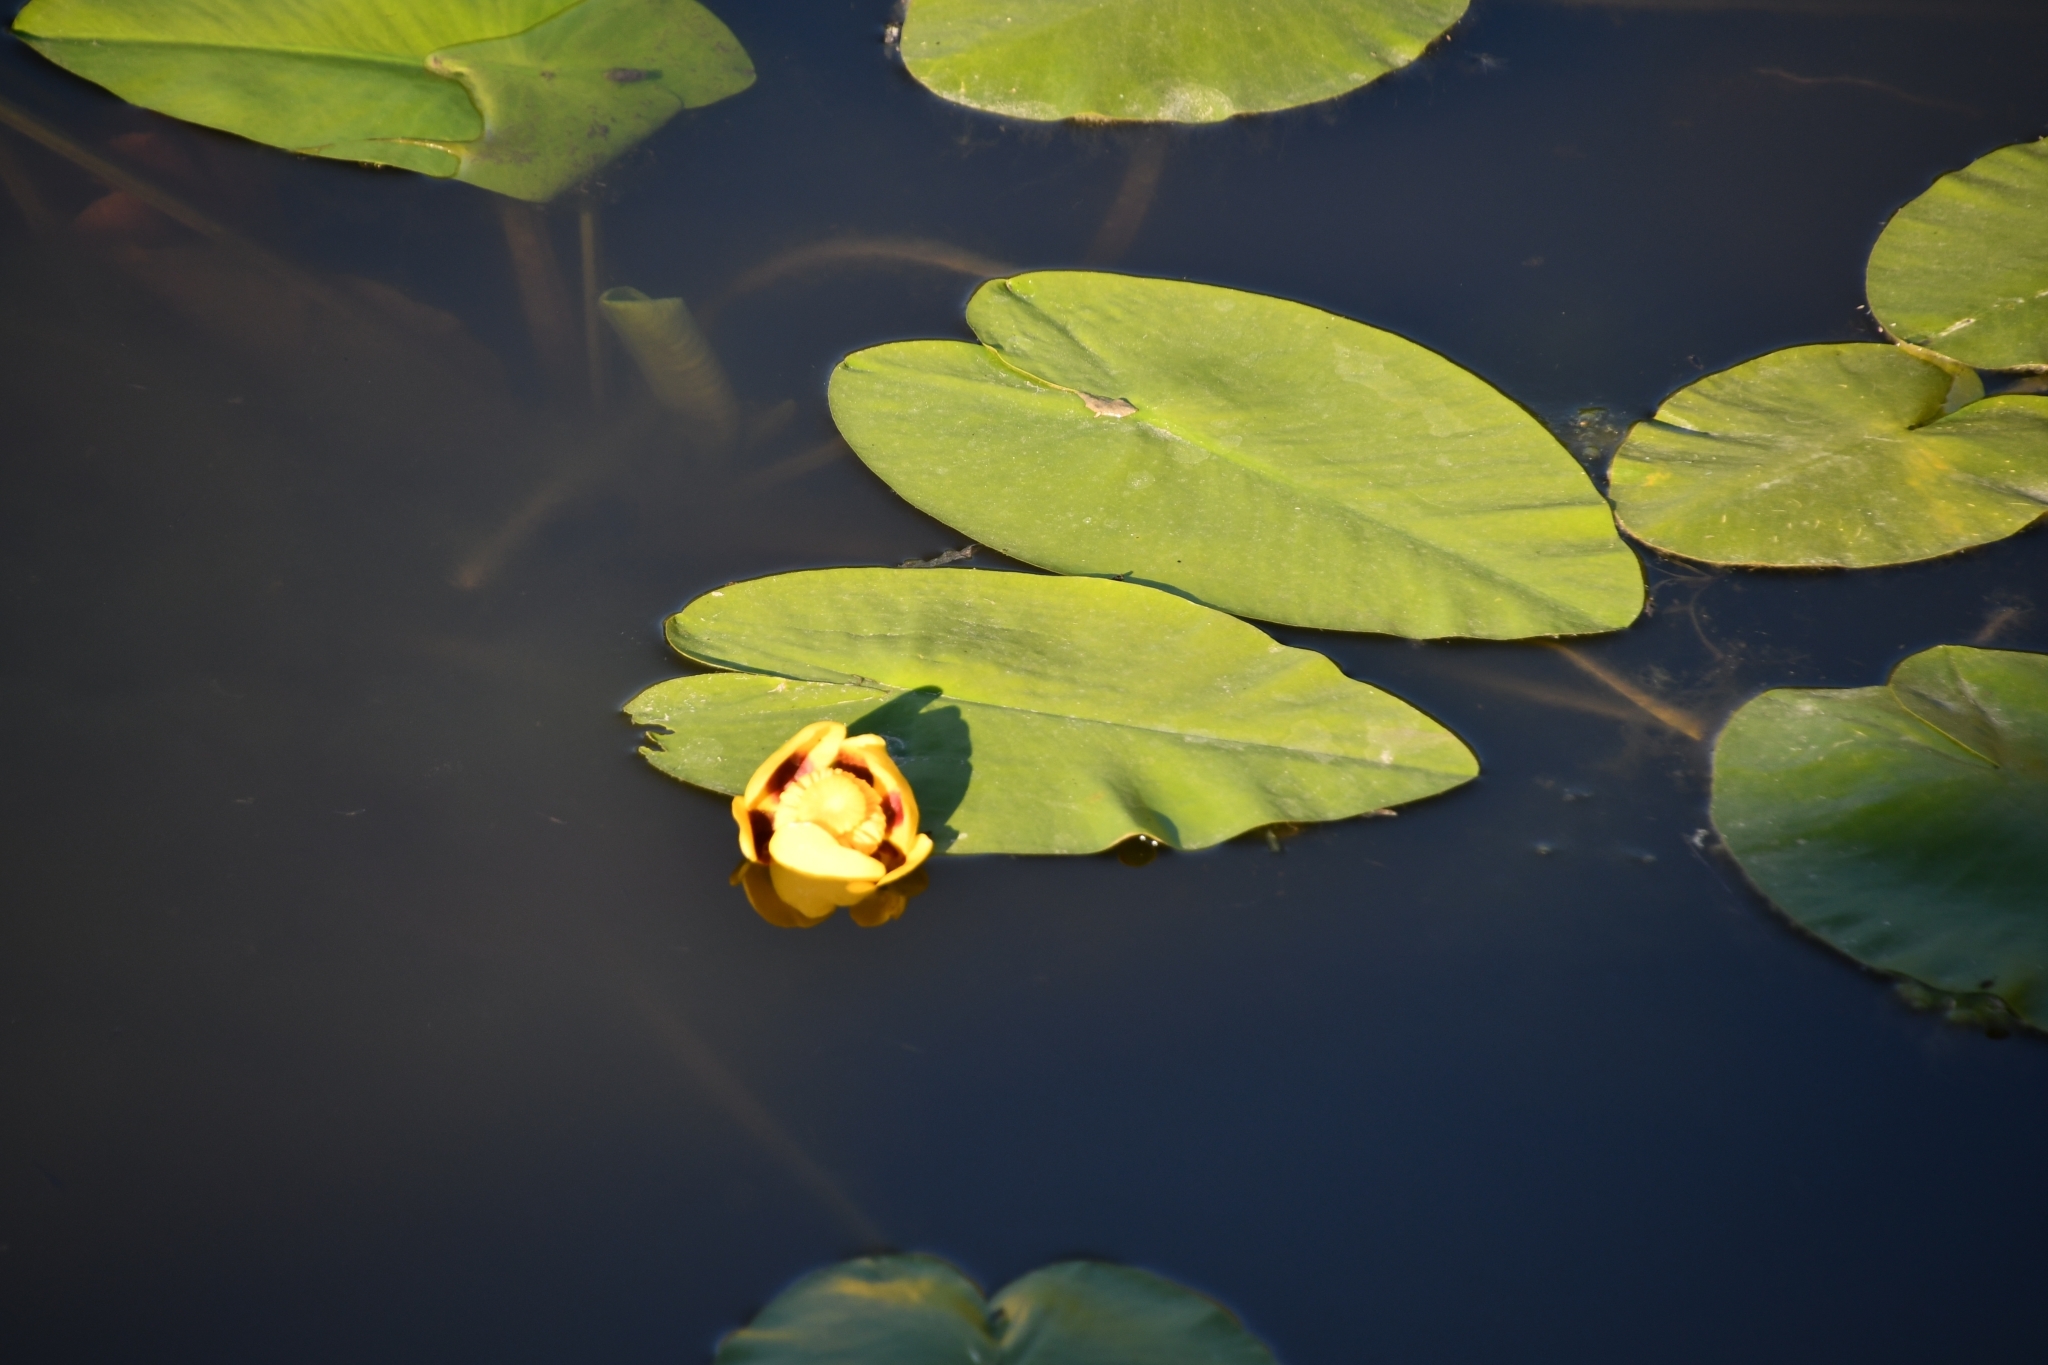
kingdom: Plantae
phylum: Tracheophyta
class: Magnoliopsida
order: Nymphaeales
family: Nymphaeaceae
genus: Nuphar
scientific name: Nuphar variegata
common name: Beaver-root
